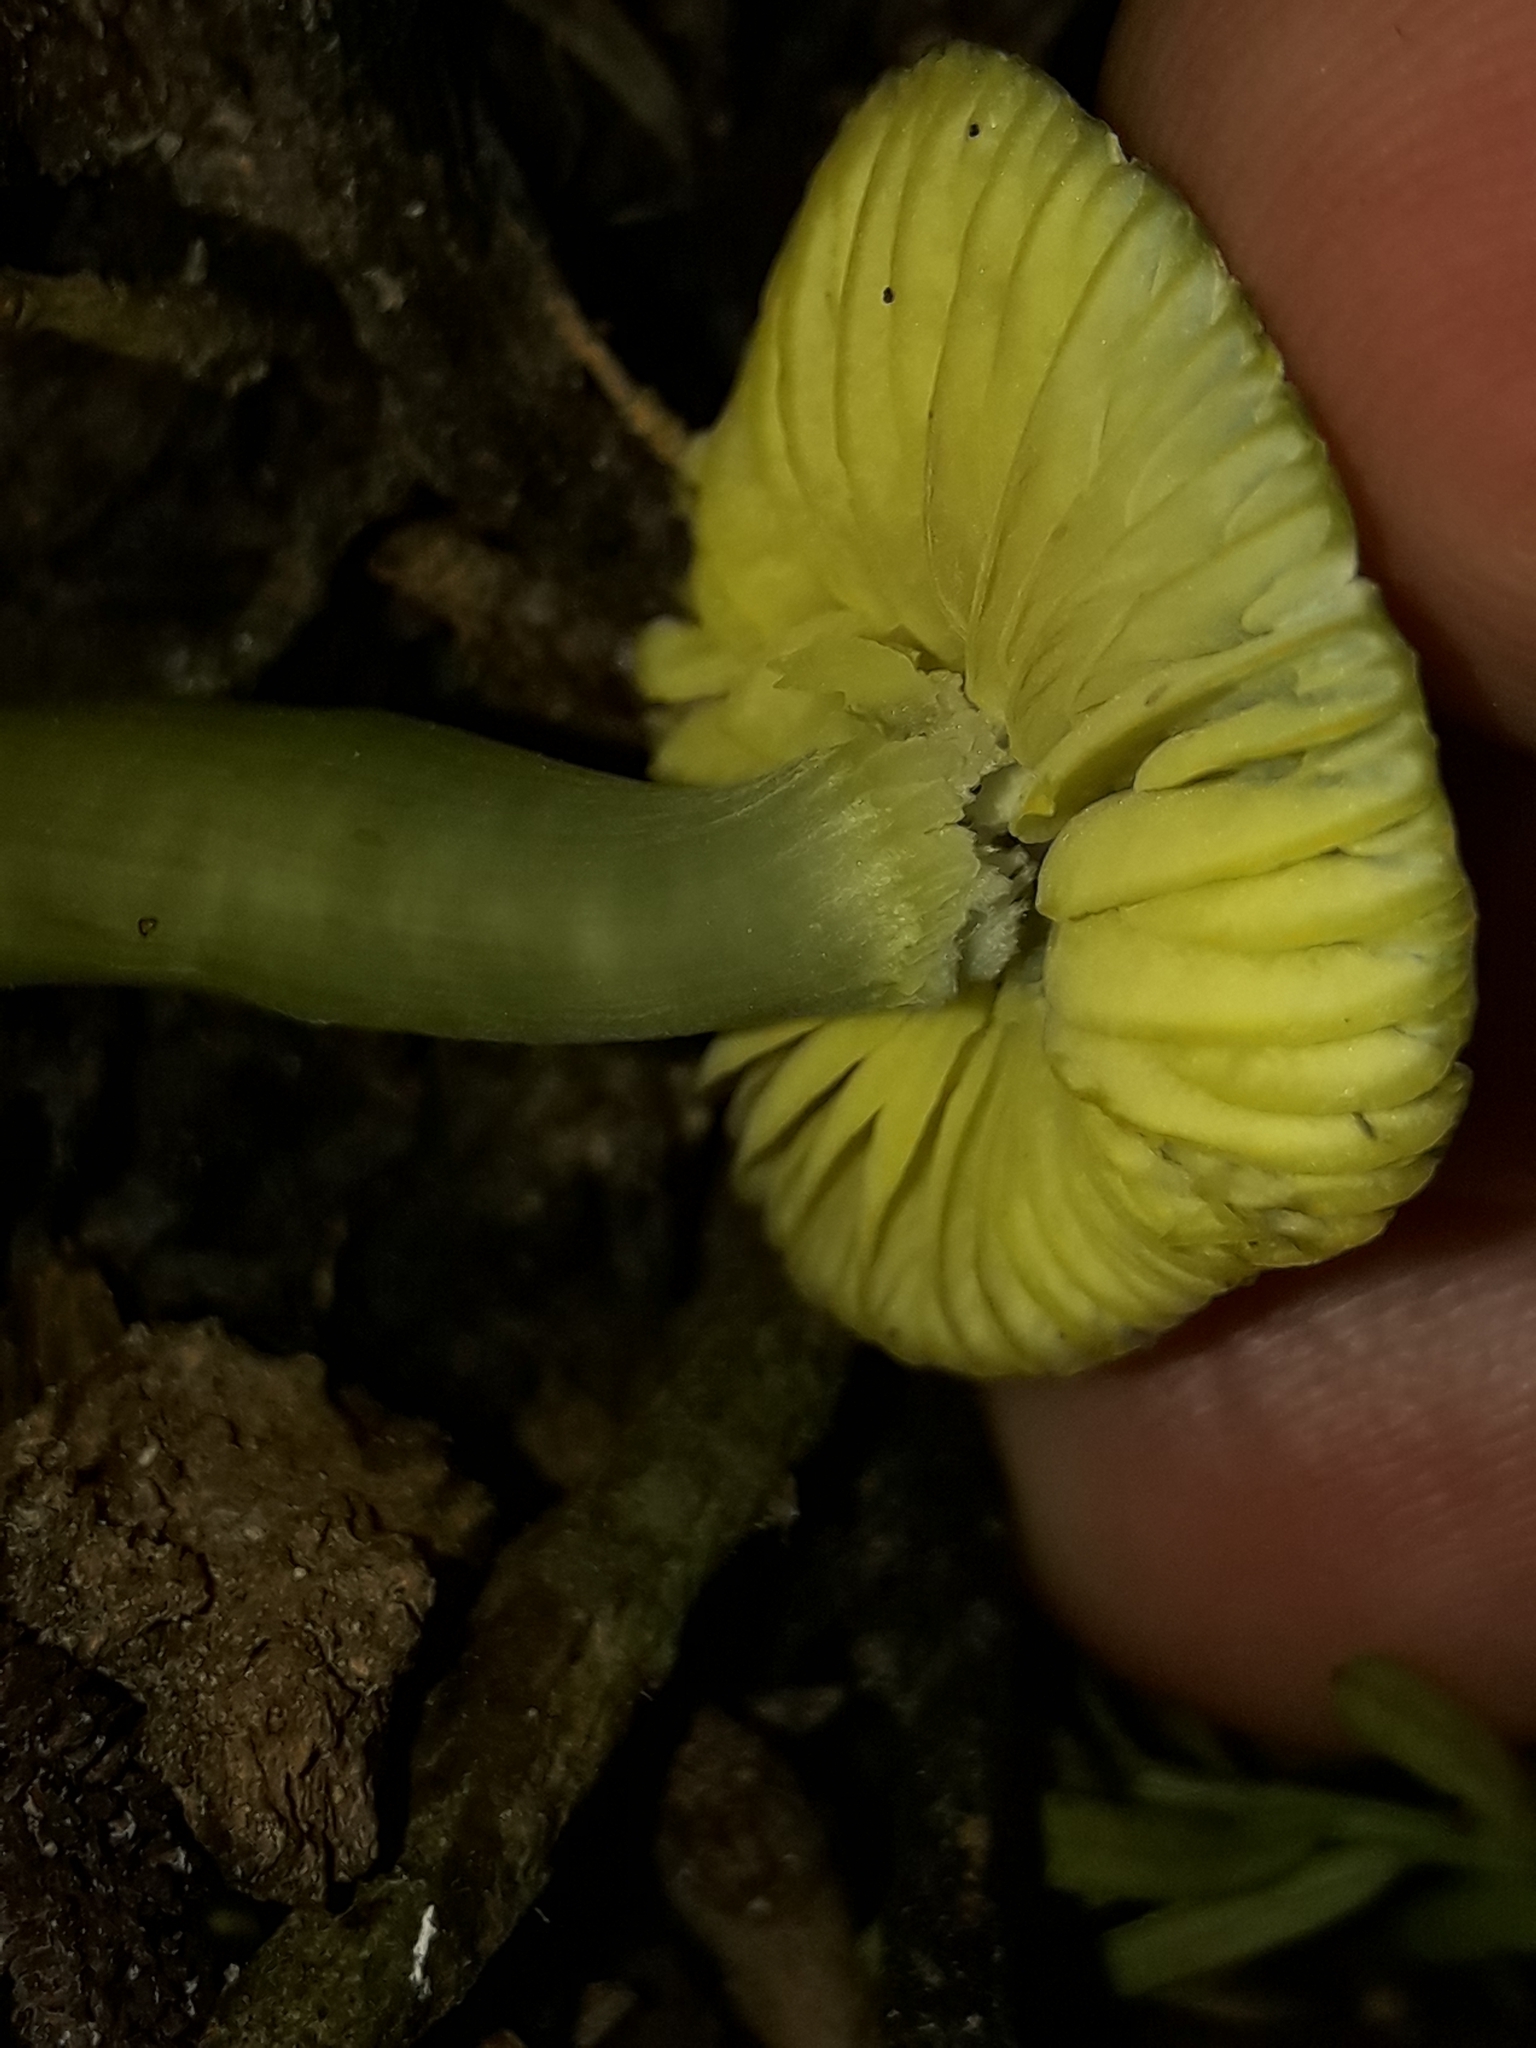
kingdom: Fungi
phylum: Basidiomycota
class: Agaricomycetes
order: Agaricales
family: Hygrophoraceae
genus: Humidicutis
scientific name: Humidicutis luteovirens
